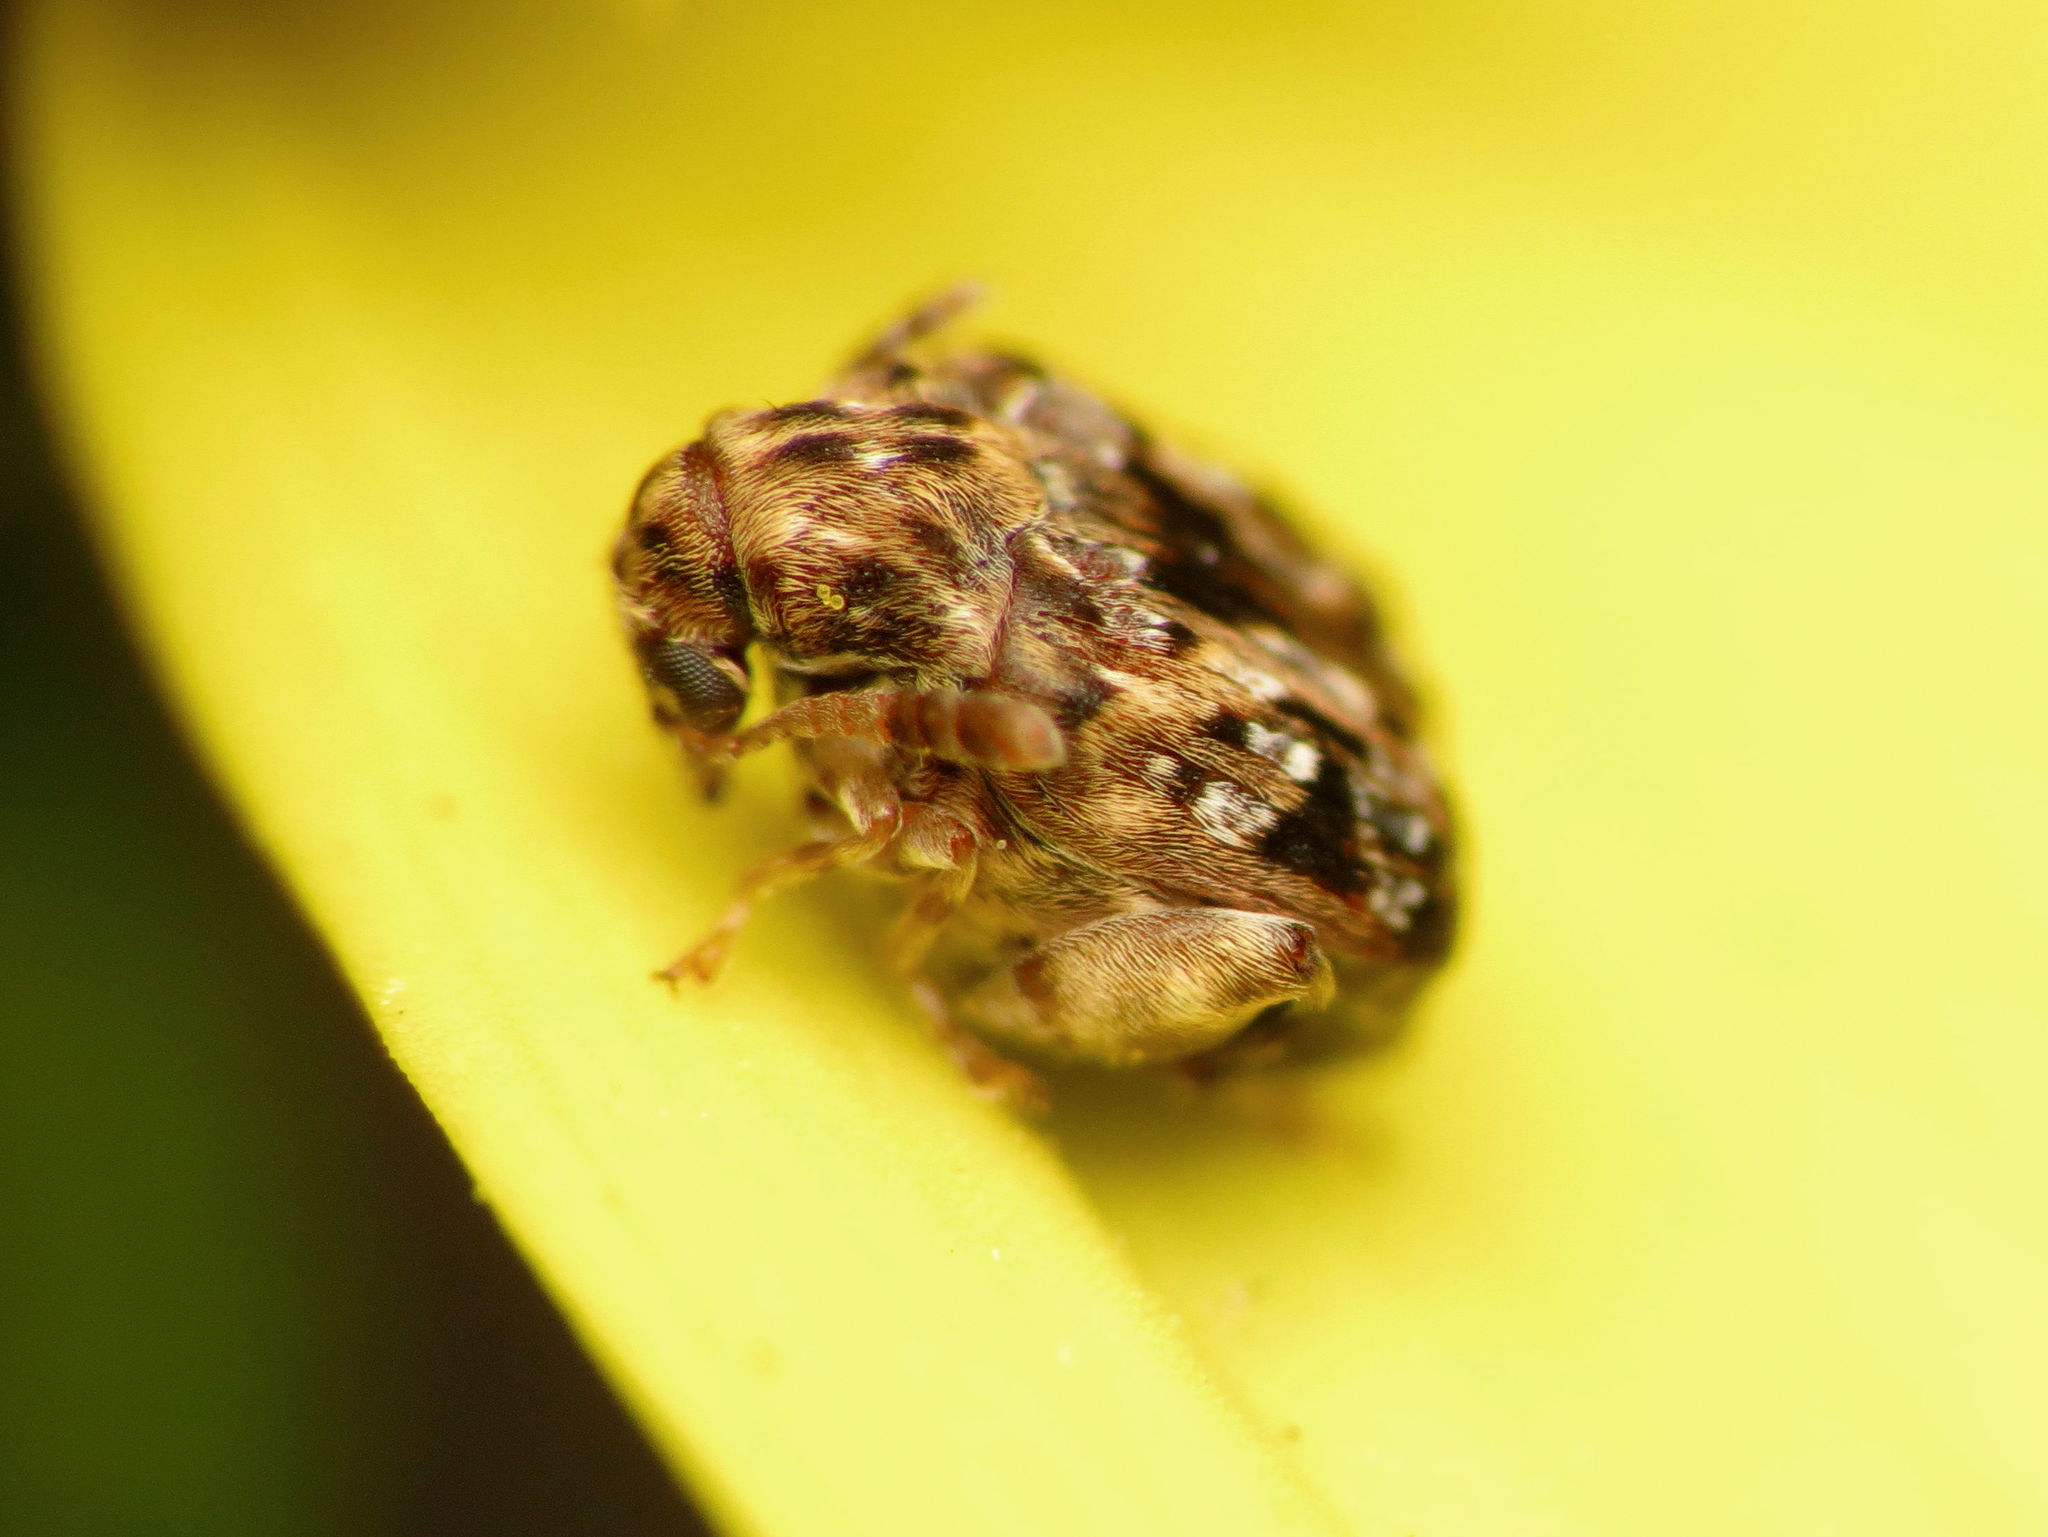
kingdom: Animalia
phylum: Arthropoda
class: Insecta
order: Coleoptera
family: Chrysomelidae
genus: Gibbobruchus
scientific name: Gibbobruchus mimus
